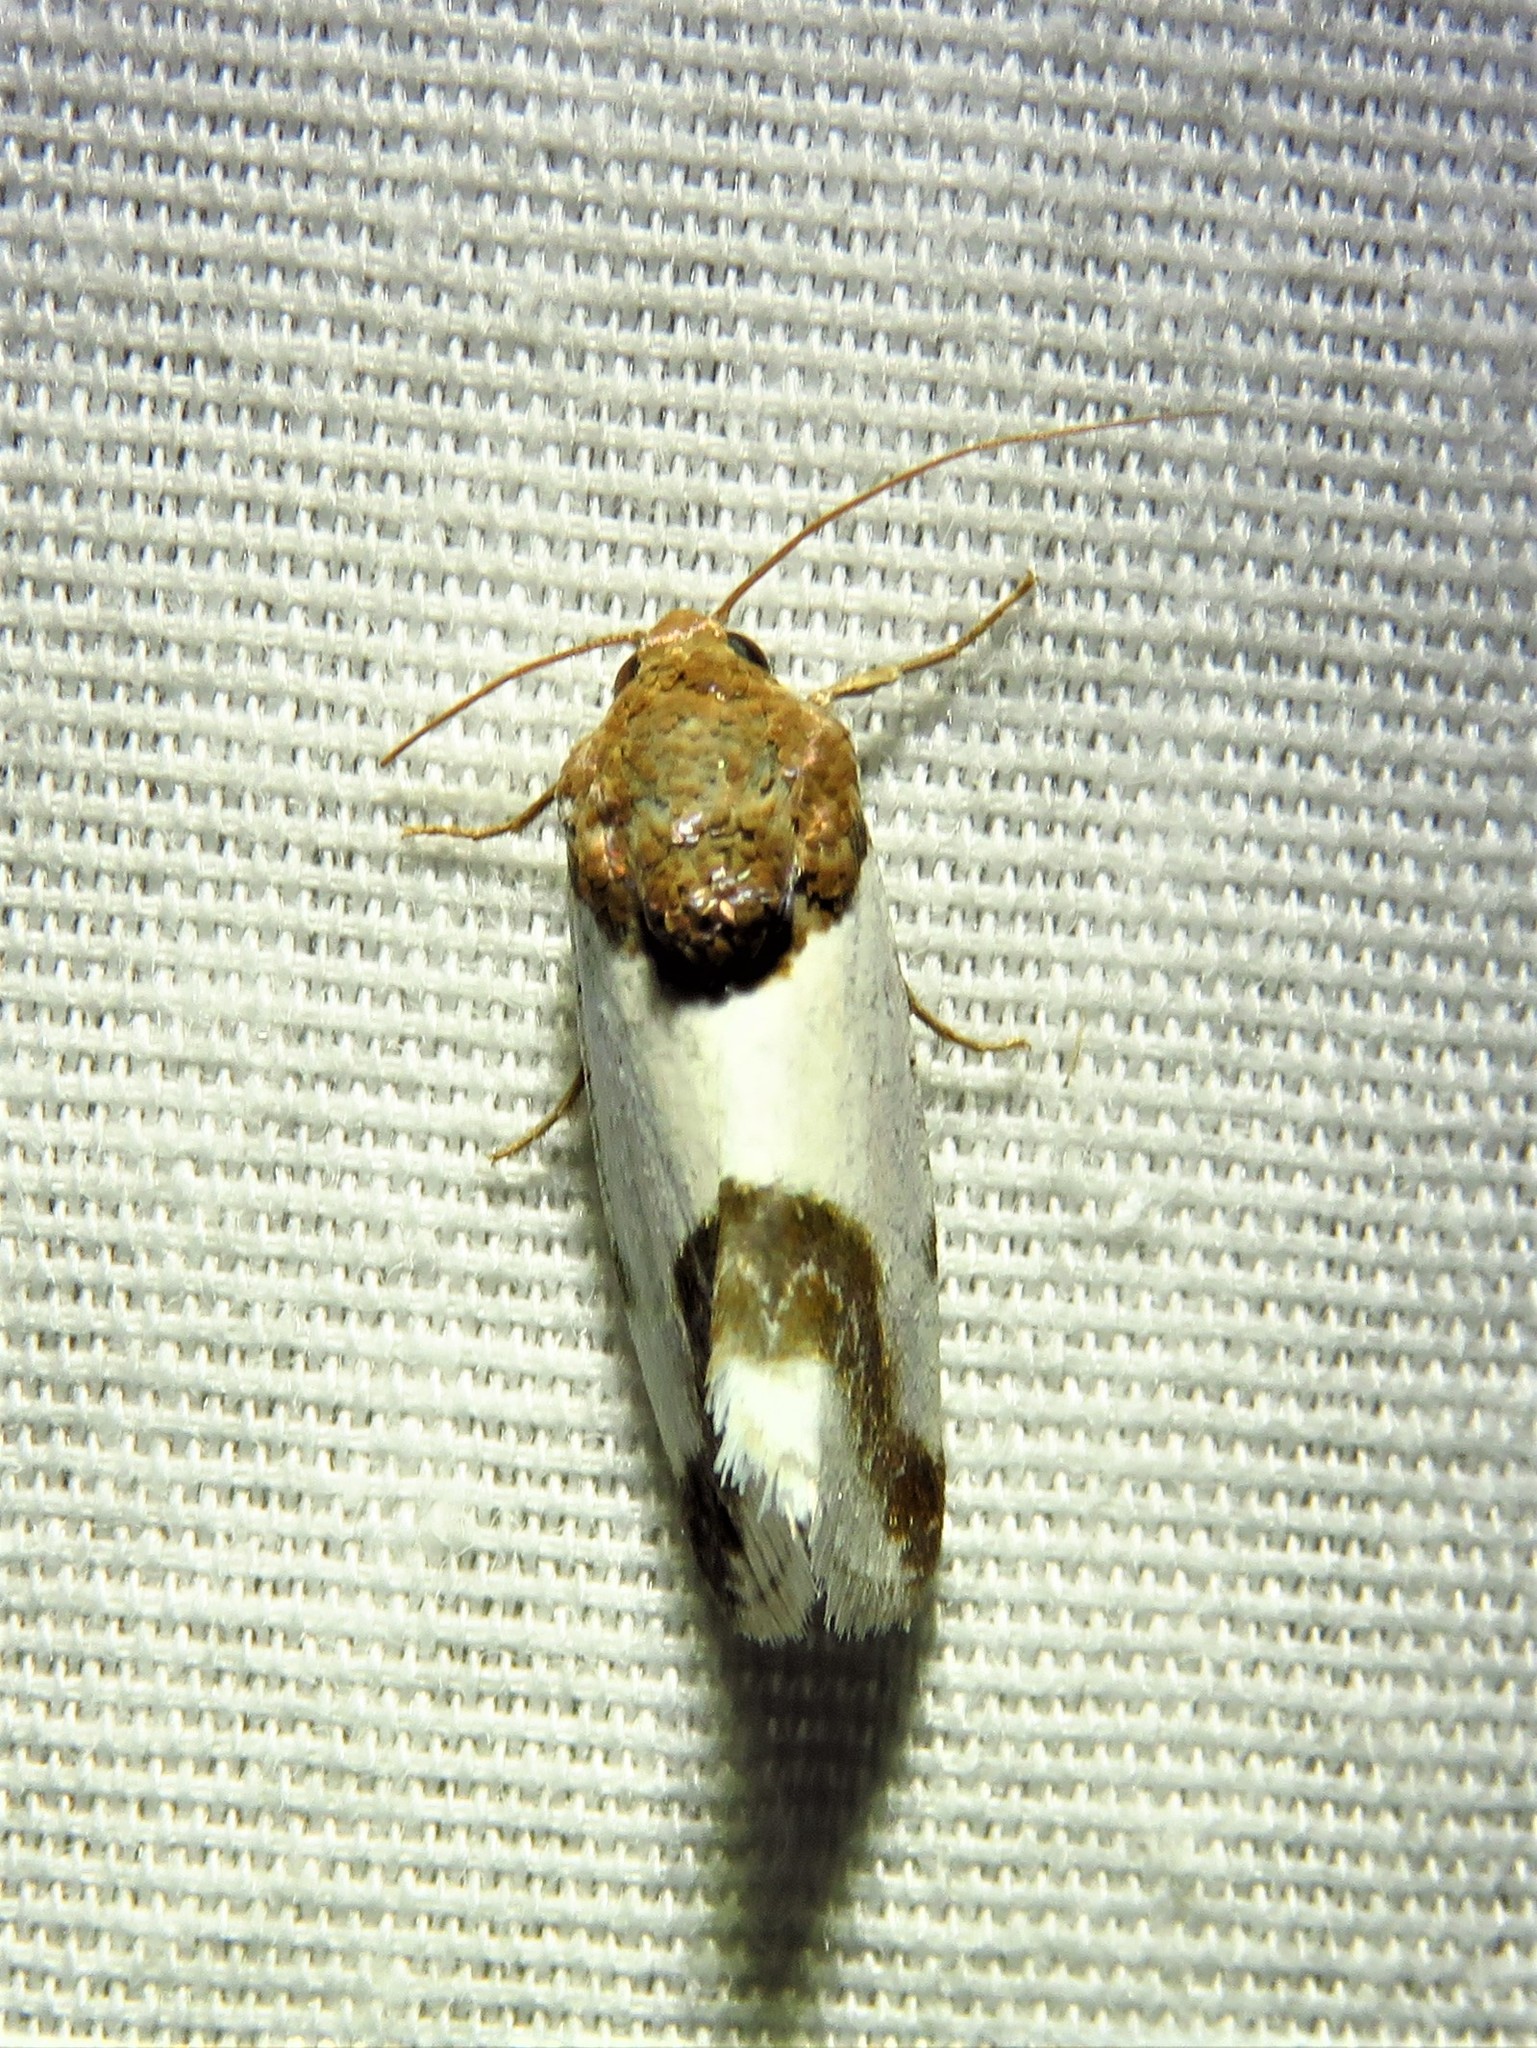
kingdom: Animalia
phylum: Arthropoda
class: Insecta
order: Lepidoptera
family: Noctuidae
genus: Acontia
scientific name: Acontia Tarache lactipennis
